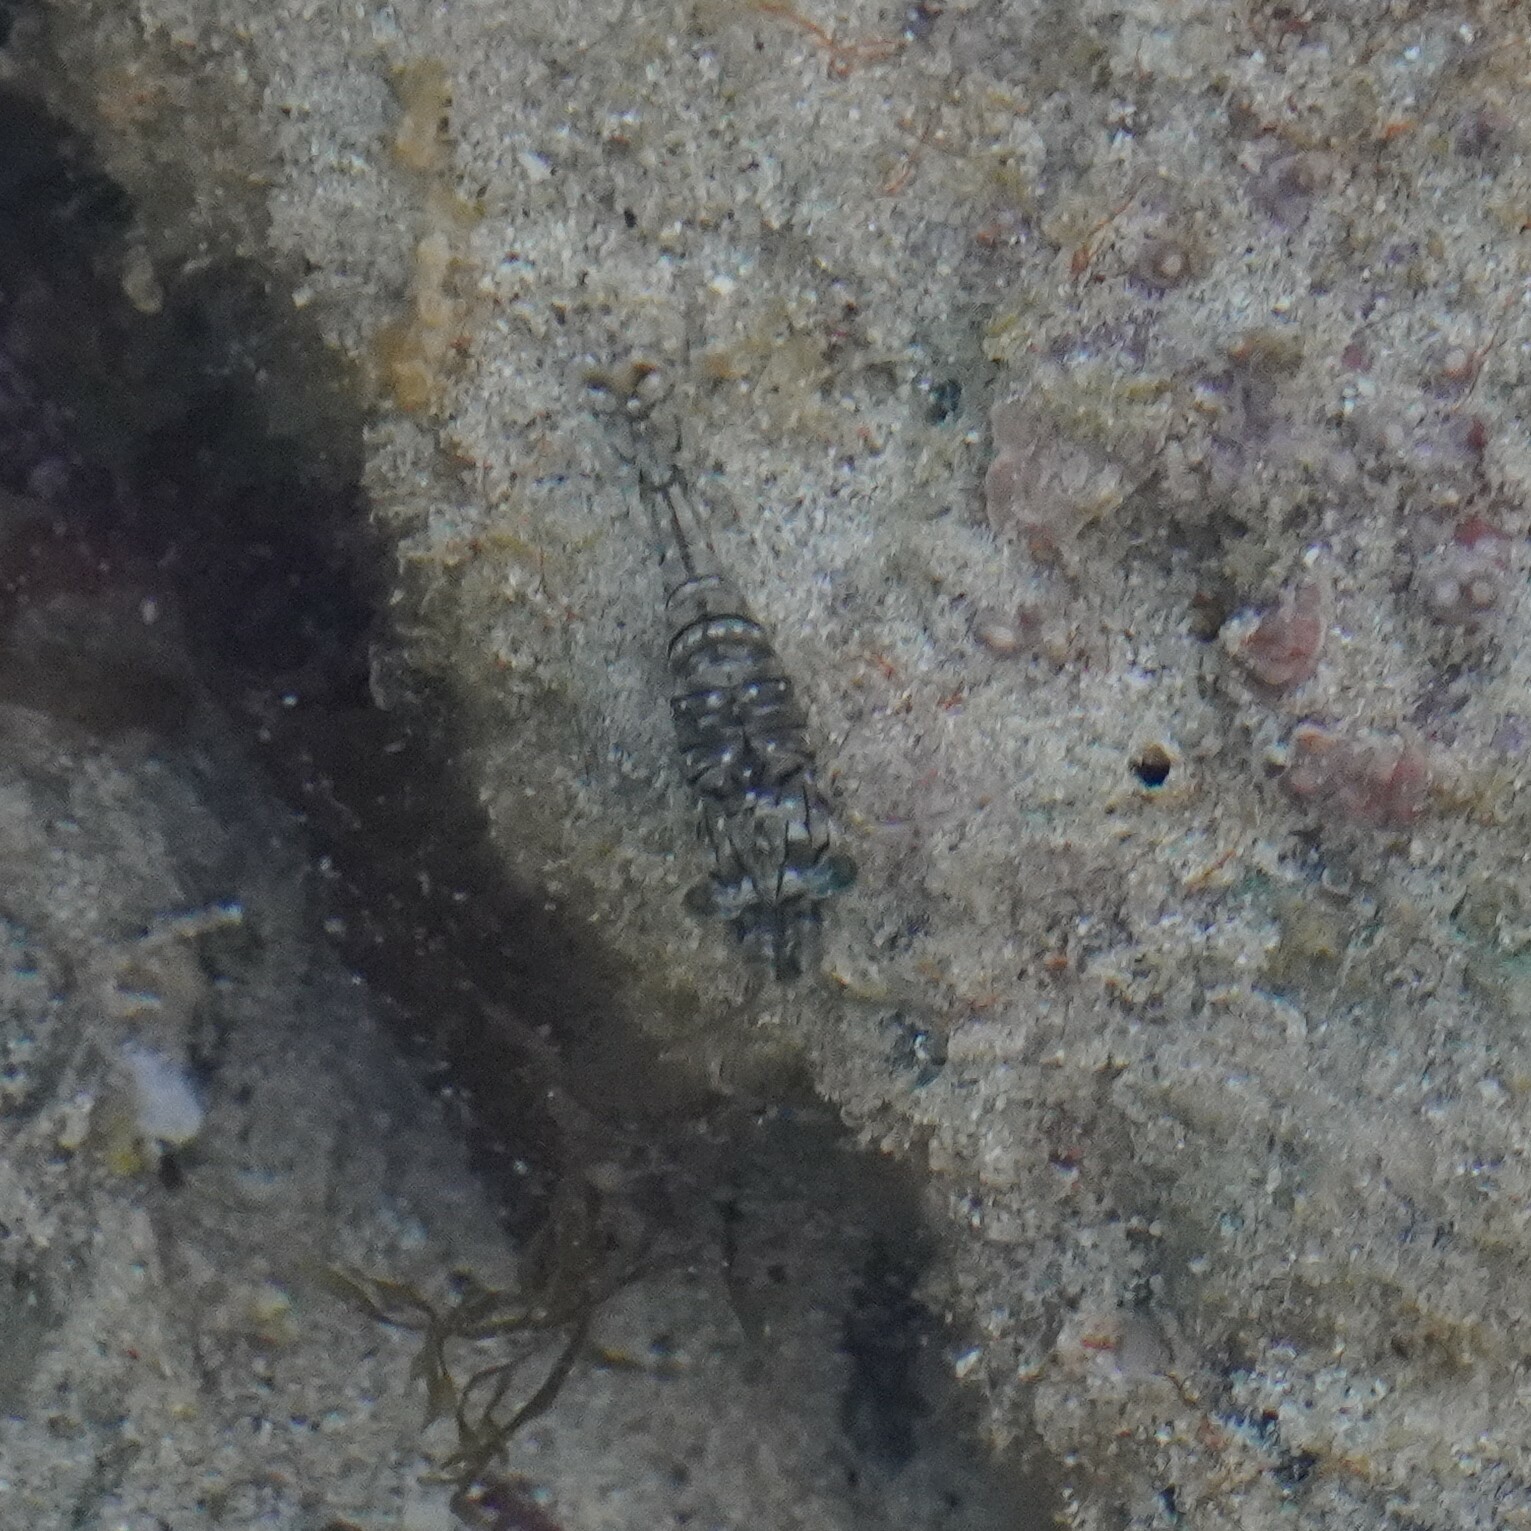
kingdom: Animalia
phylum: Arthropoda
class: Malacostraca
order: Decapoda
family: Palaemonidae
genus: Palaemon
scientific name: Palaemon elegans
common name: Grass prawm
